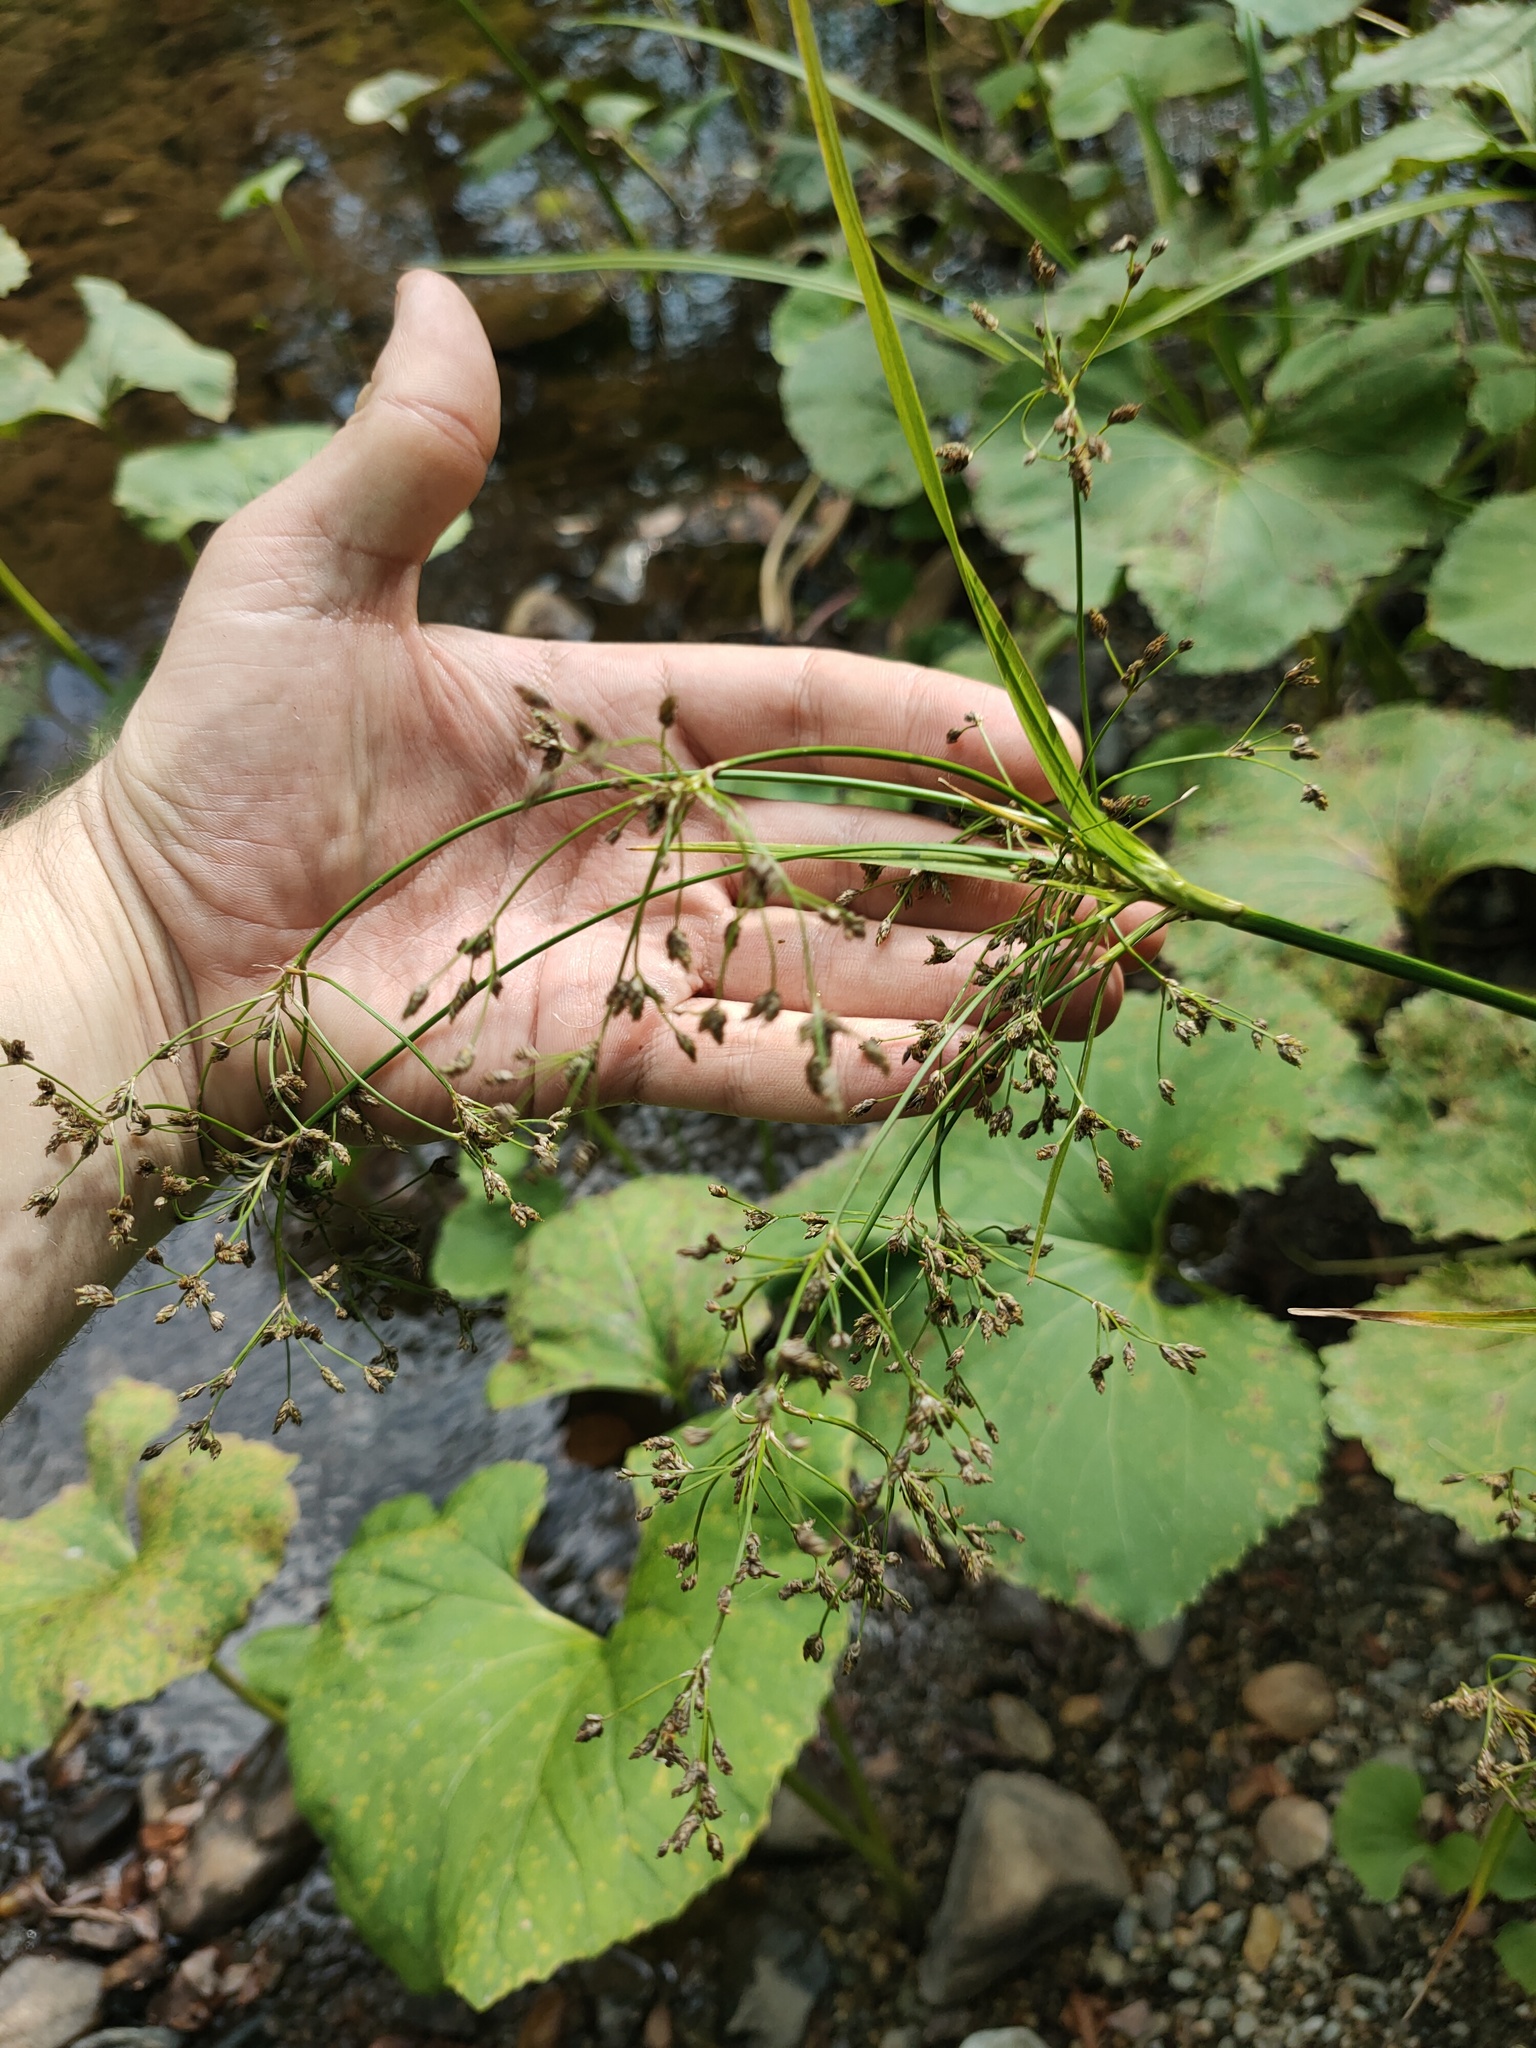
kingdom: Plantae
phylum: Tracheophyta
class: Liliopsida
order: Poales
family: Cyperaceae
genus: Scirpus
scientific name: Scirpus sylvaticus
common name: Wood club-rush
